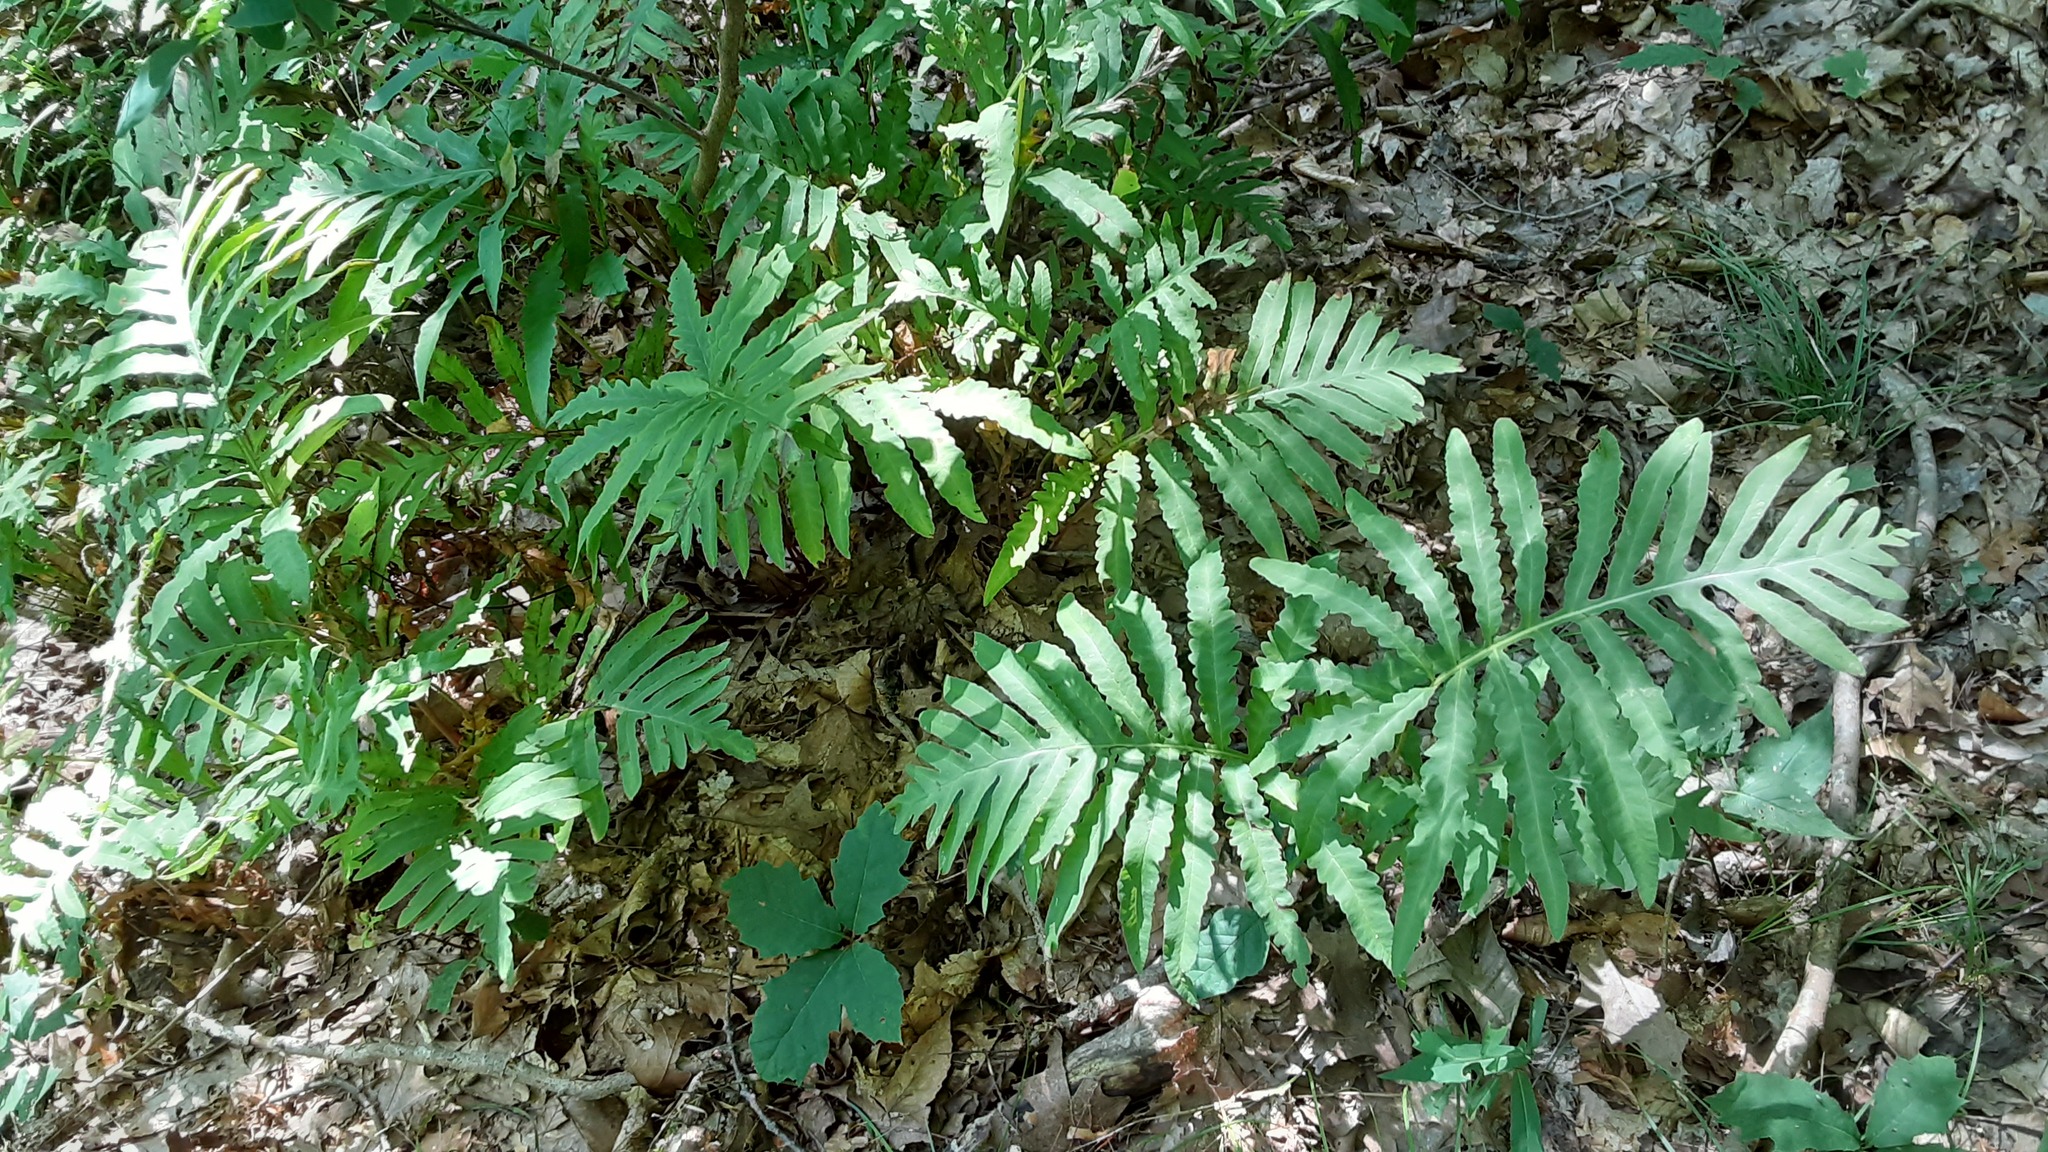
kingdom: Plantae
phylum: Tracheophyta
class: Polypodiopsida
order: Polypodiales
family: Onocleaceae
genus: Onoclea
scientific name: Onoclea sensibilis
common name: Sensitive fern
